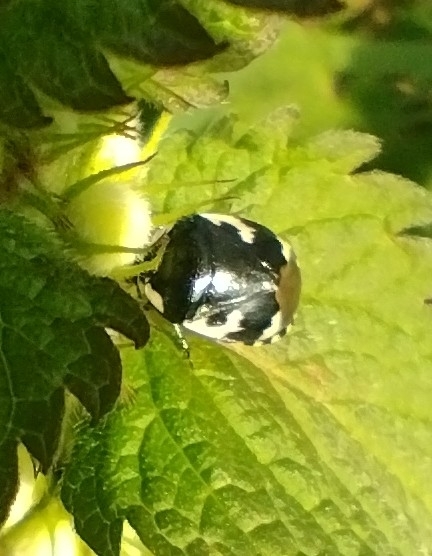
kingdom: Animalia
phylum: Arthropoda
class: Insecta
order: Hemiptera
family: Cydnidae
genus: Tritomegas
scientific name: Tritomegas bicolor
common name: Pied shieldbug
